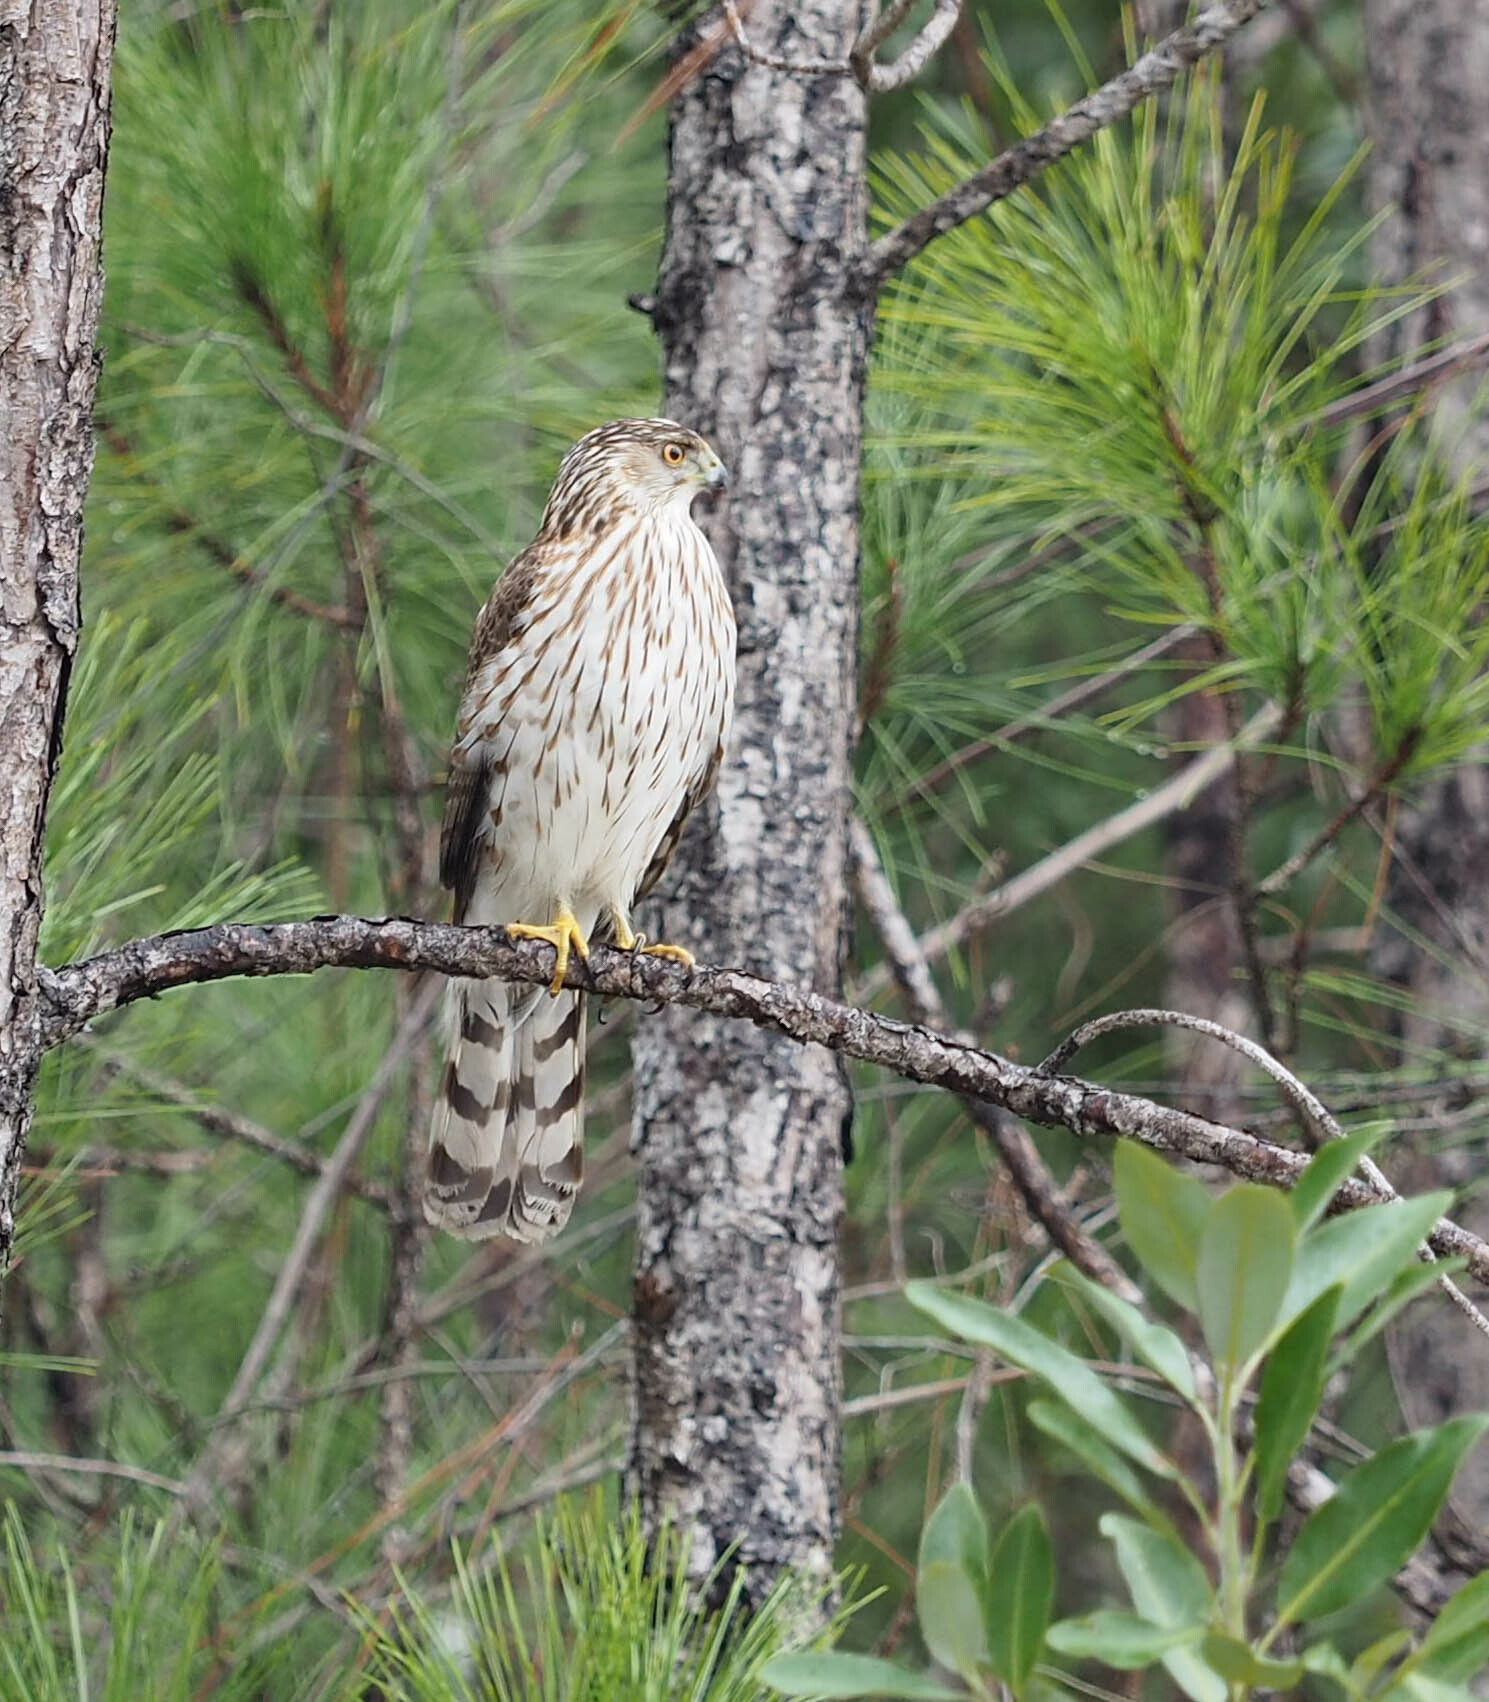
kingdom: Animalia
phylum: Chordata
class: Aves
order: Accipitriformes
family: Accipitridae
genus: Accipiter
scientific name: Accipiter cooperii
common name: Cooper's hawk
